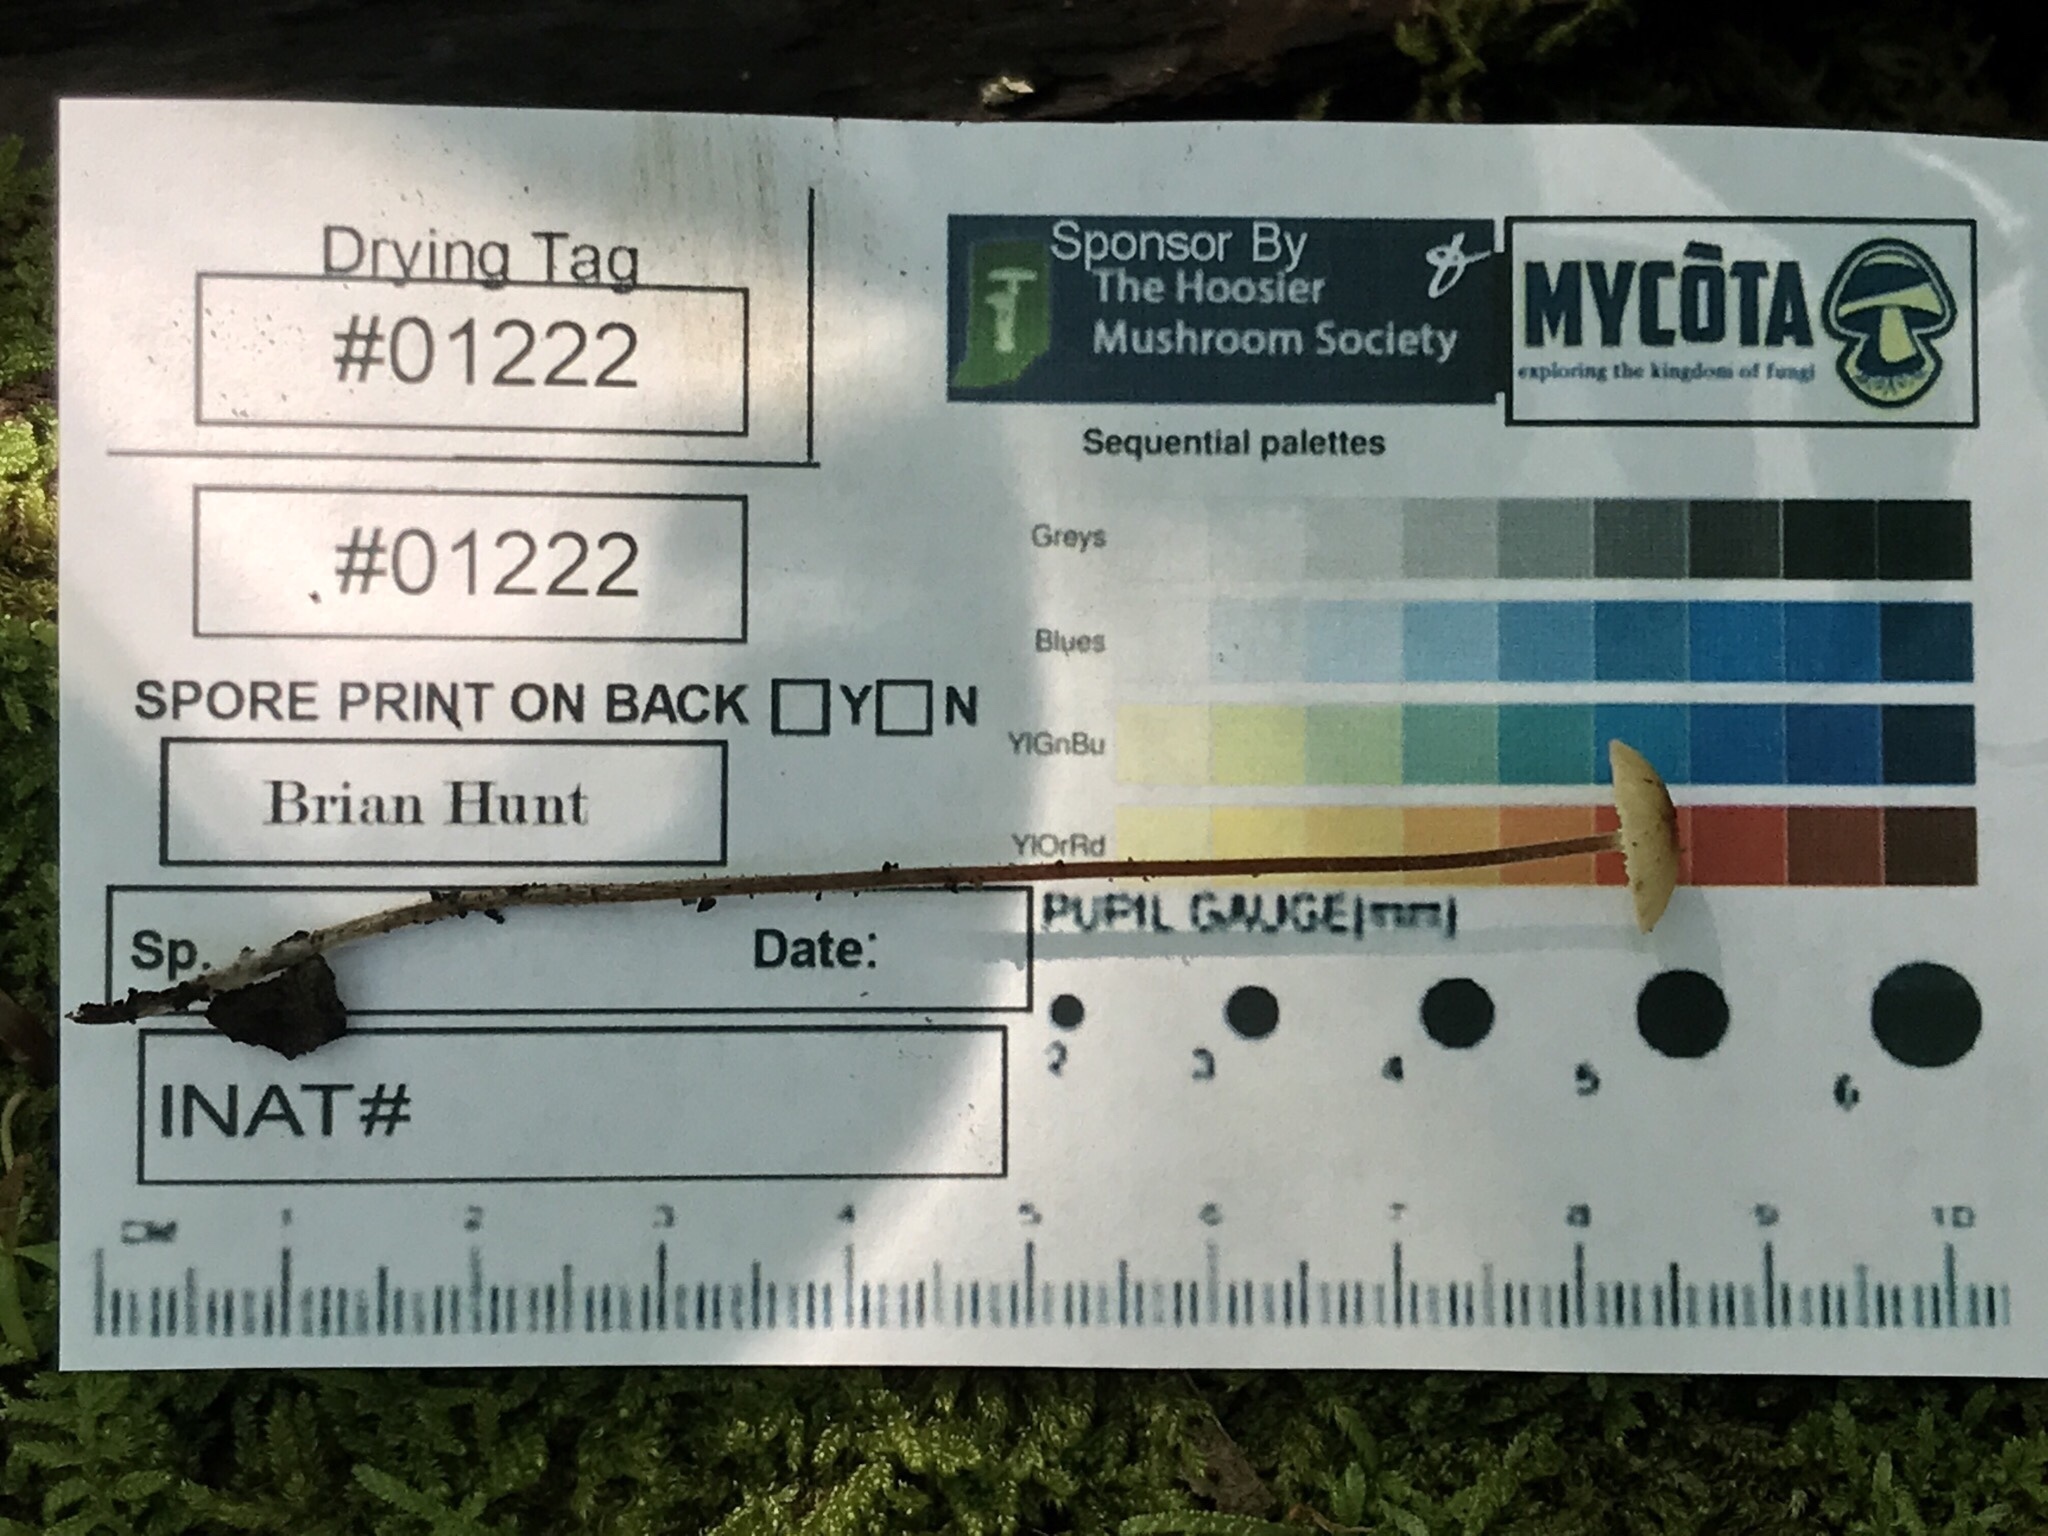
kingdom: Fungi
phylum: Basidiomycota
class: Agaricomycetes
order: Agaricales
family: Physalacriaceae
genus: Rhizomarasmius
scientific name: Rhizomarasmius pyrrhocephalus
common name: Hairy long stem marasmius
